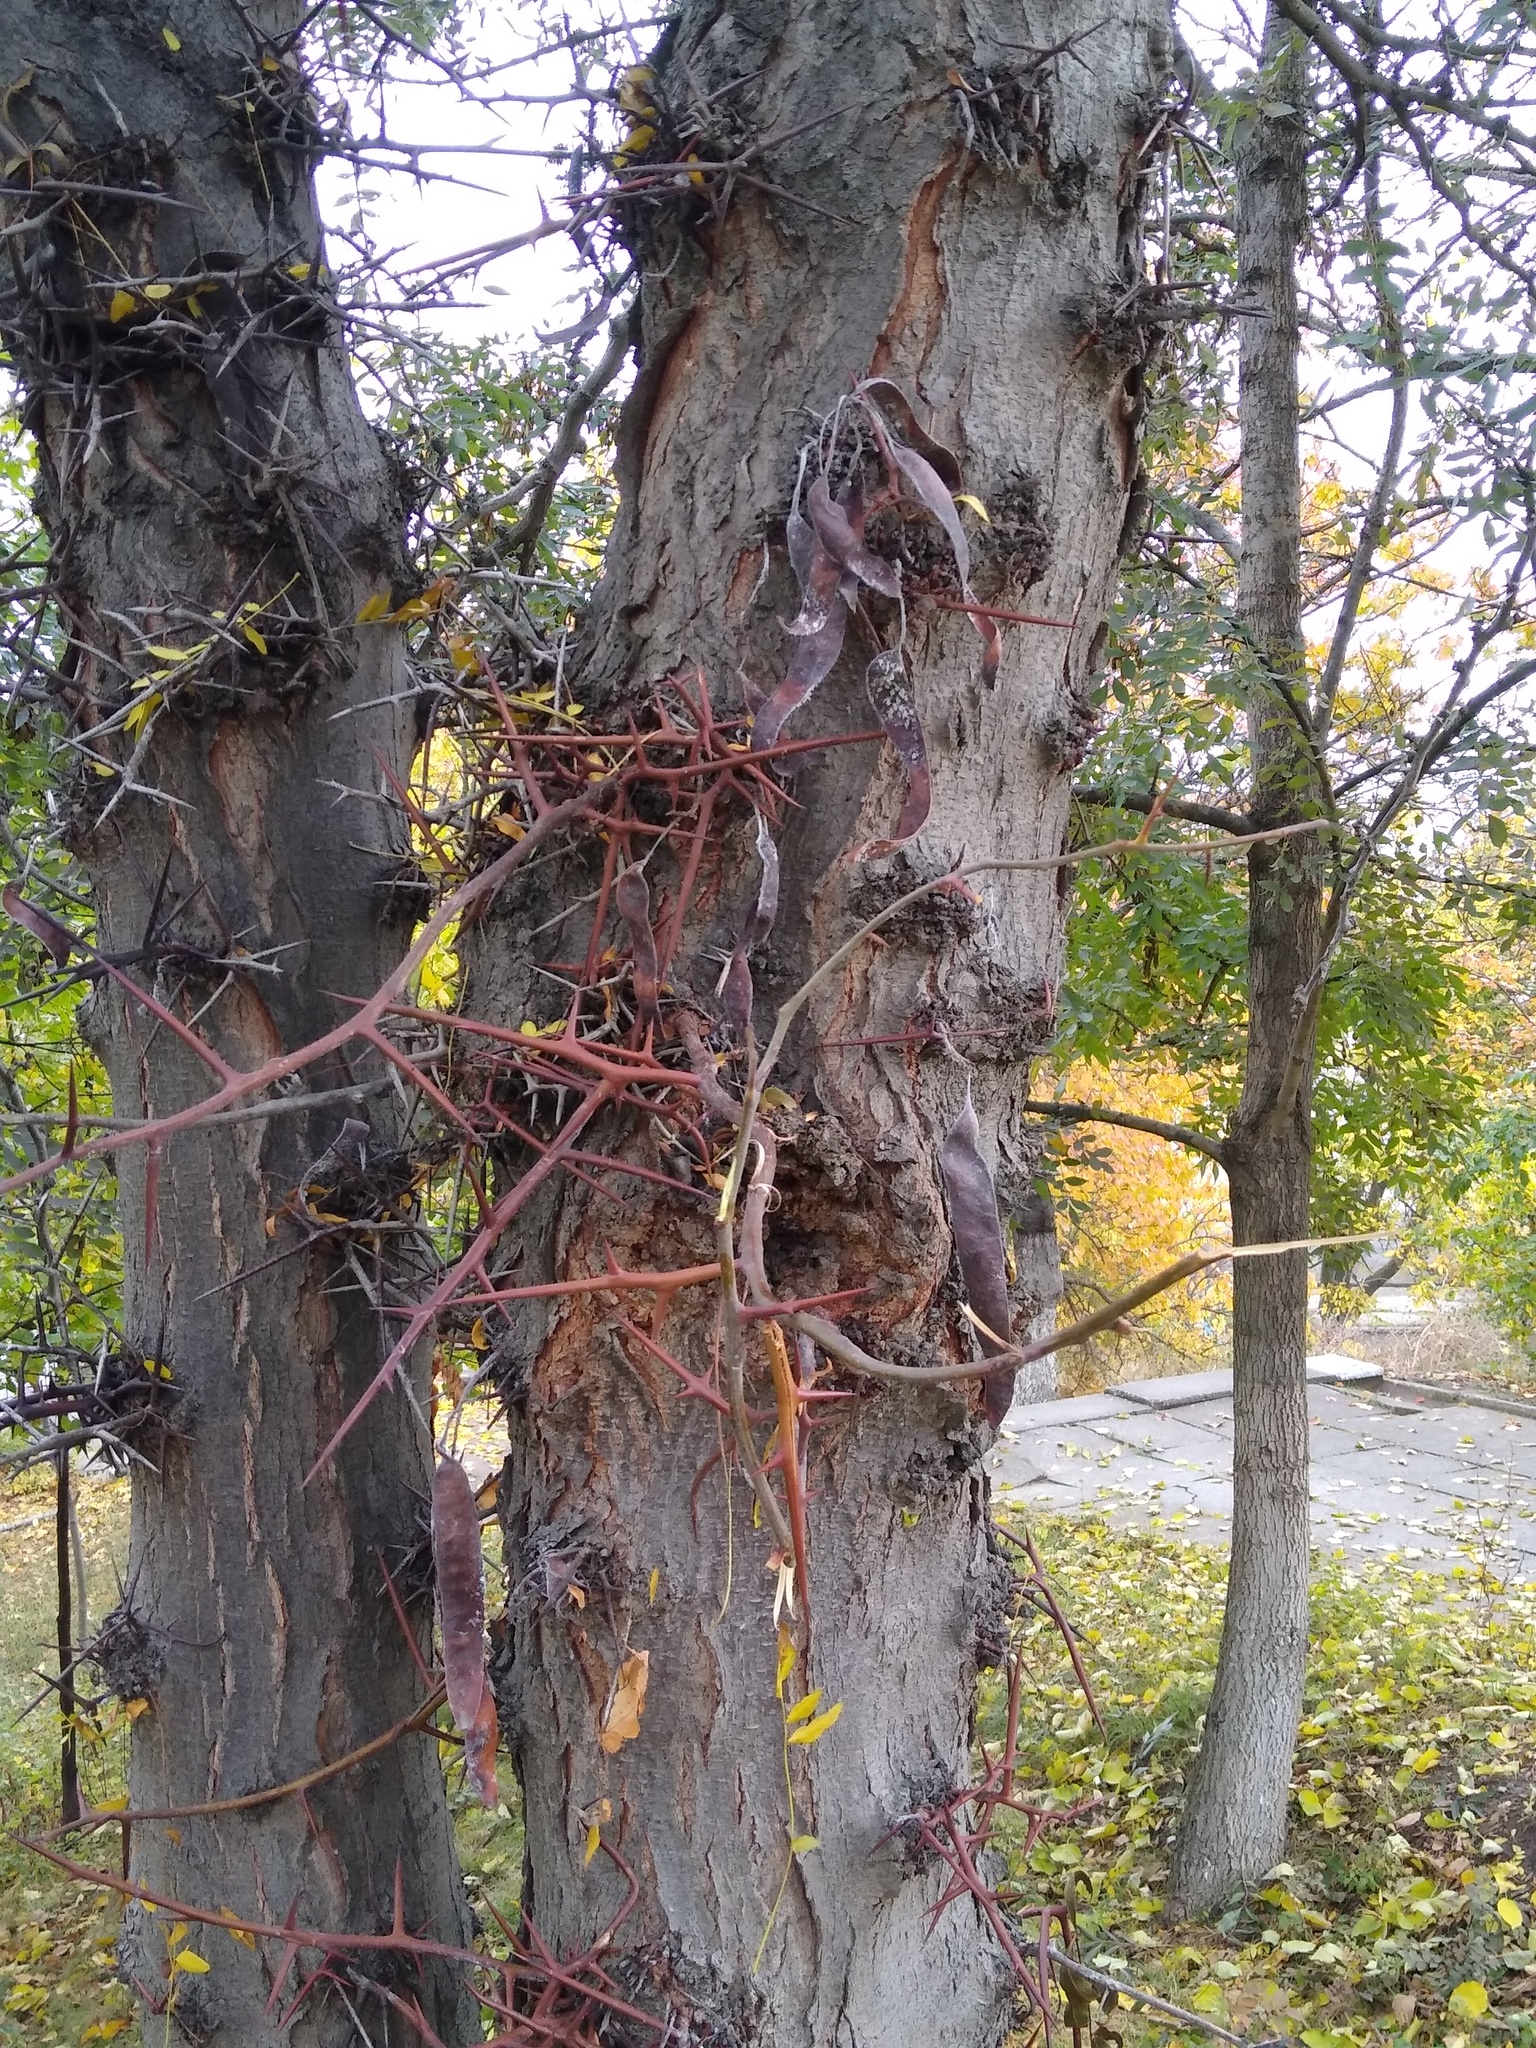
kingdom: Plantae
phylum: Tracheophyta
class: Magnoliopsida
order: Fabales
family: Fabaceae
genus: Gleditsia
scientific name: Gleditsia triacanthos
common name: Common honeylocust
